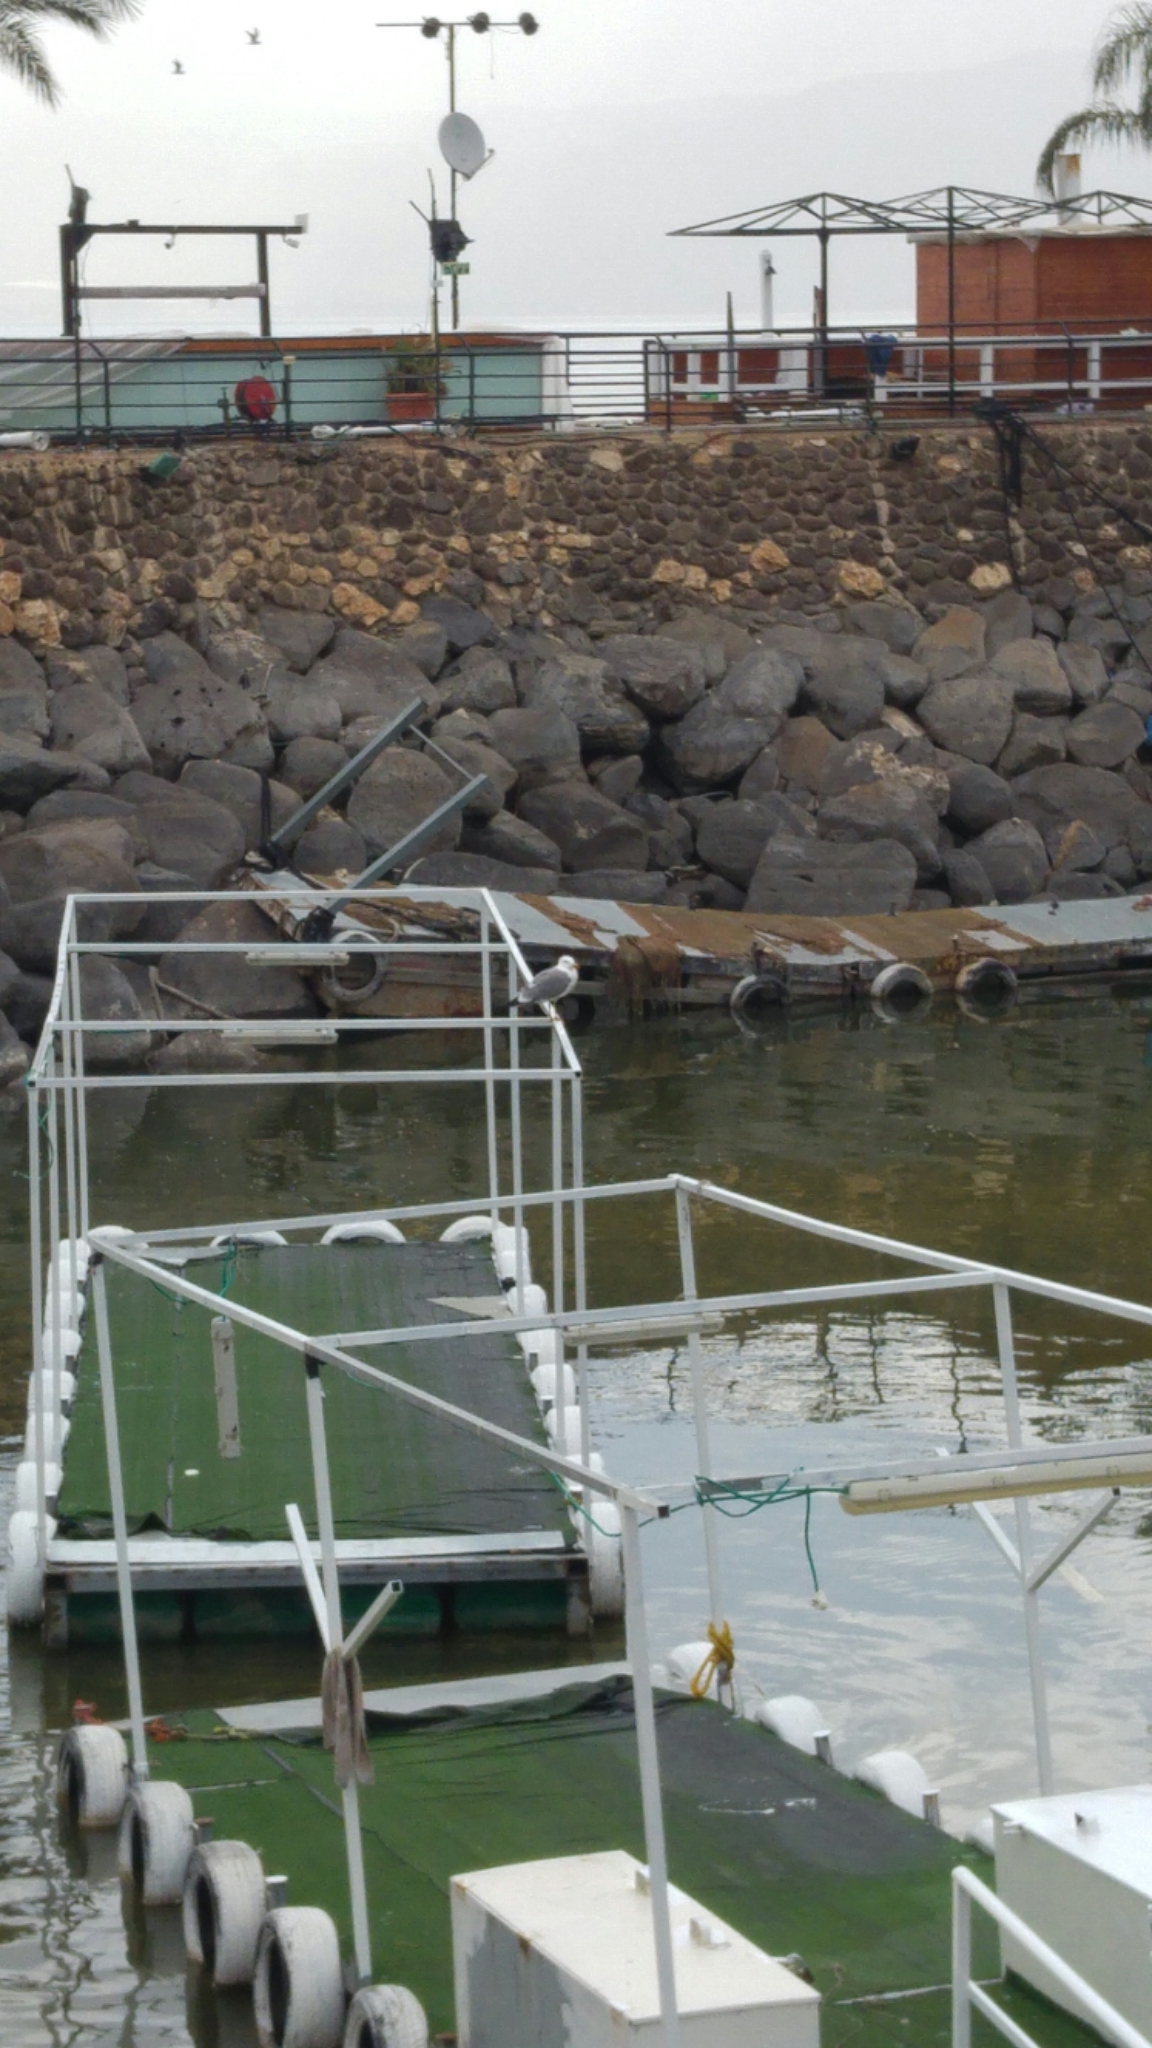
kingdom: Animalia
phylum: Chordata
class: Aves
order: Charadriiformes
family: Laridae
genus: Larus
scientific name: Larus armenicus
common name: Armenian gull
